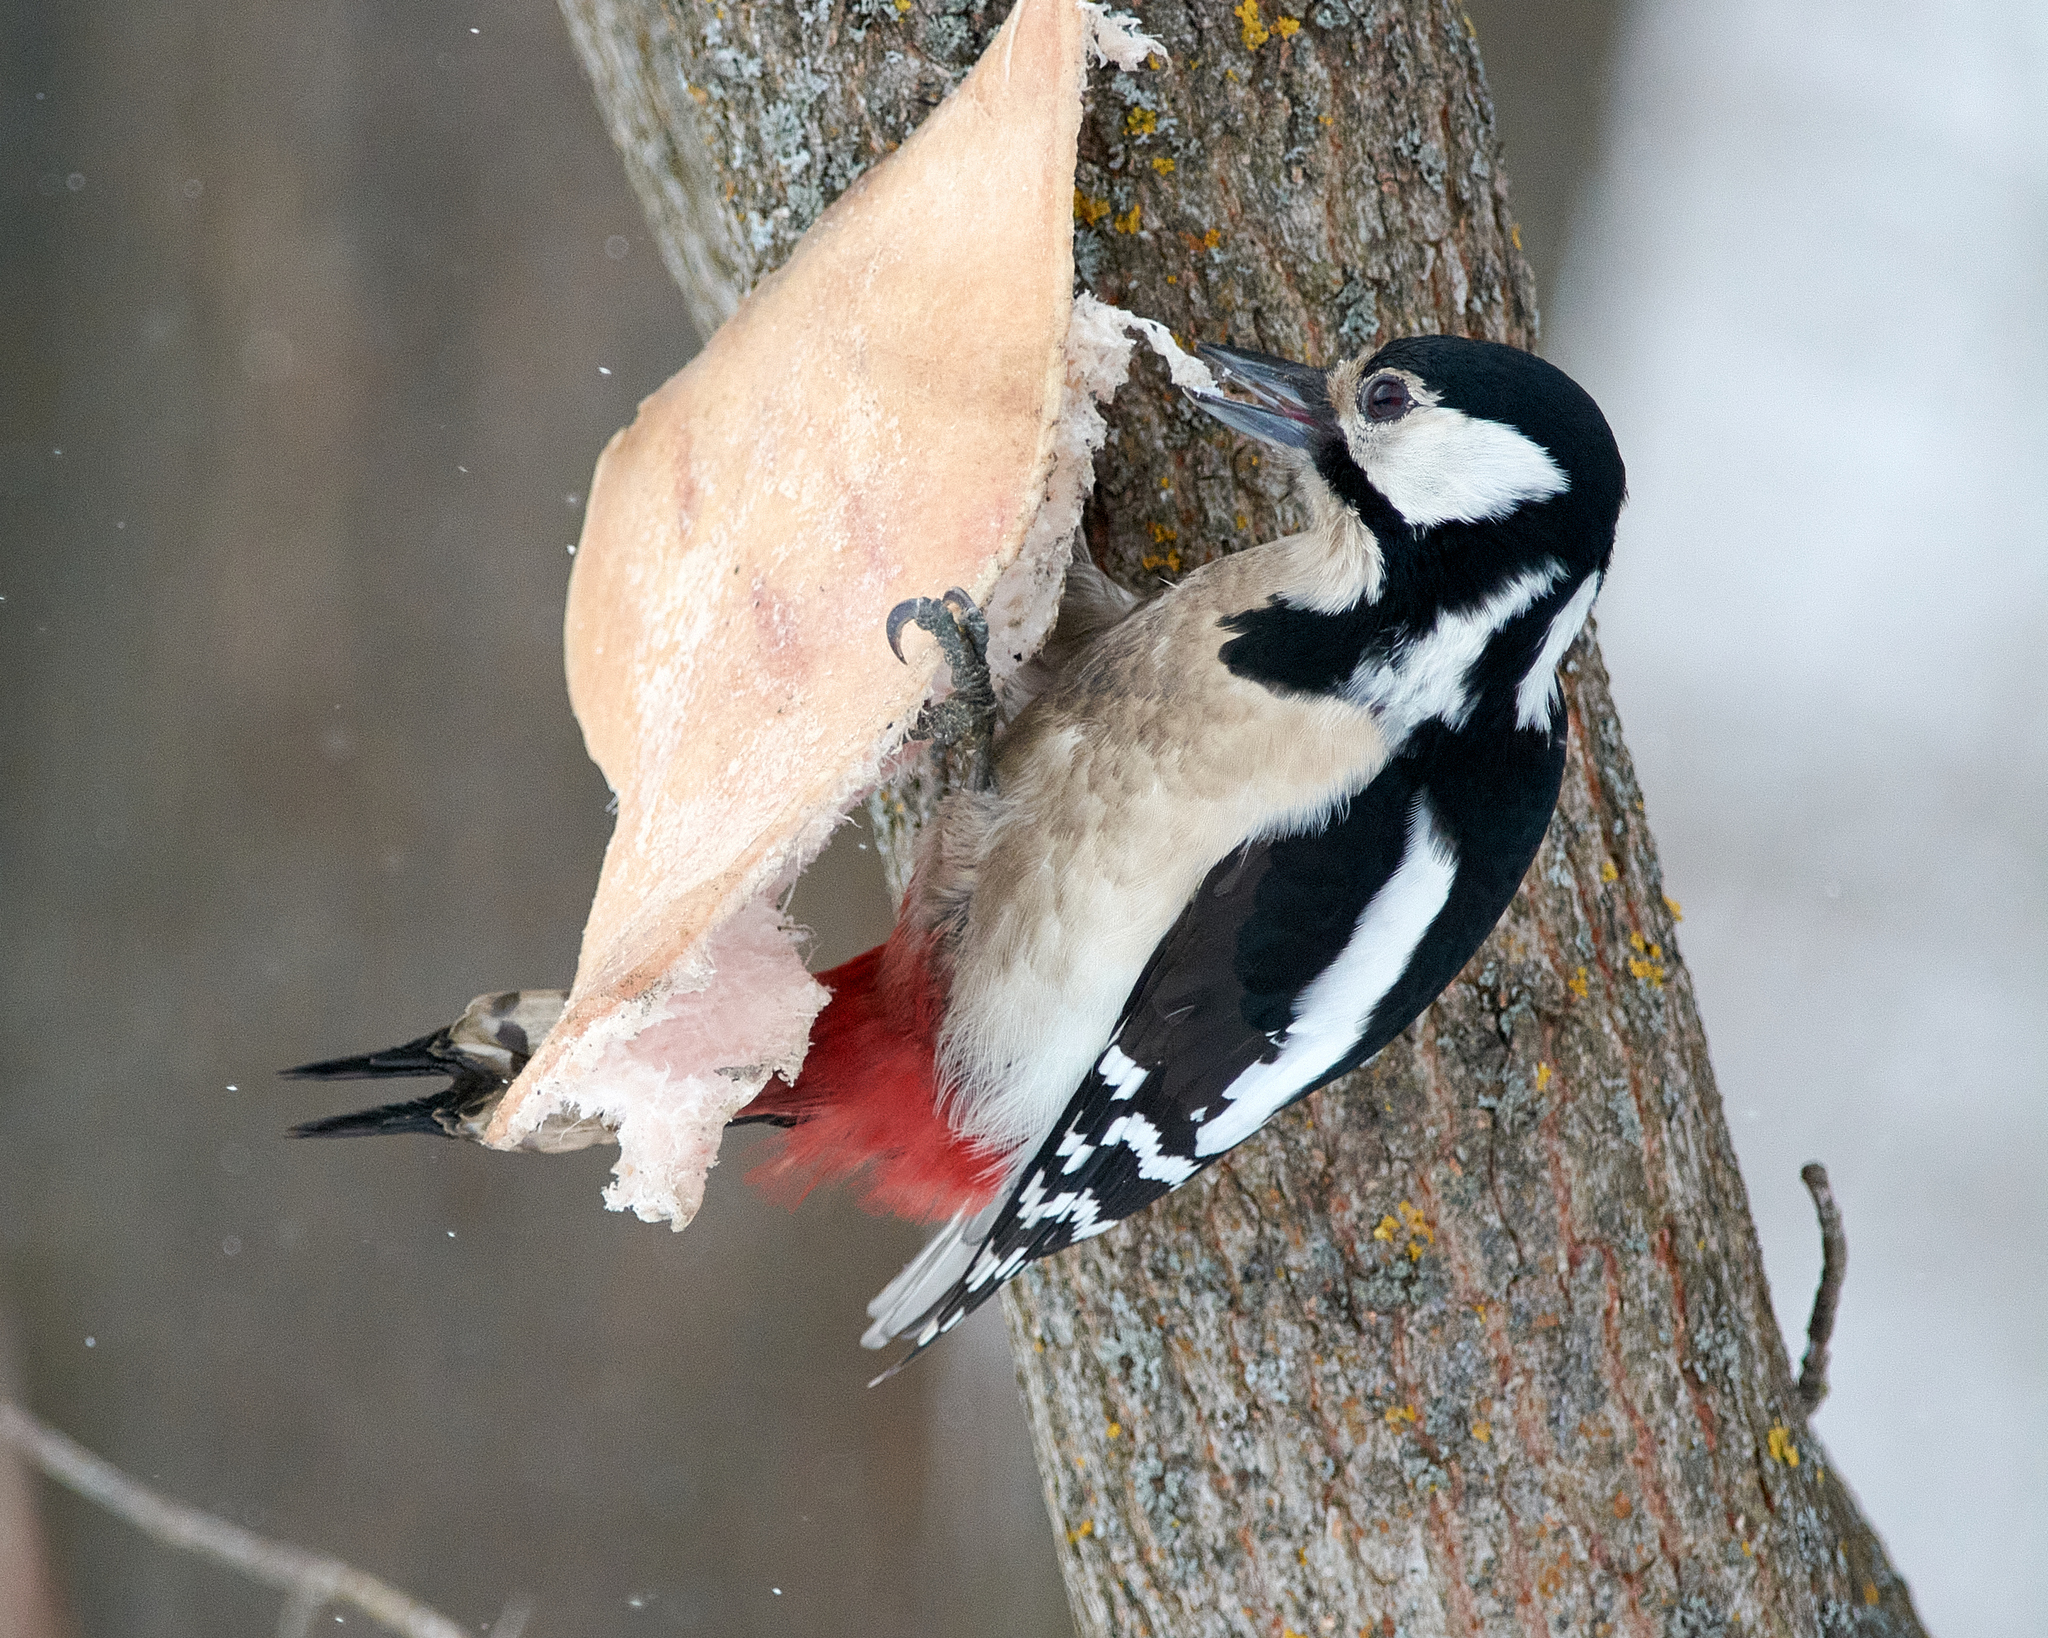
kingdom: Animalia
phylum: Chordata
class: Aves
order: Piciformes
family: Picidae
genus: Dendrocopos
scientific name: Dendrocopos major
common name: Great spotted woodpecker
